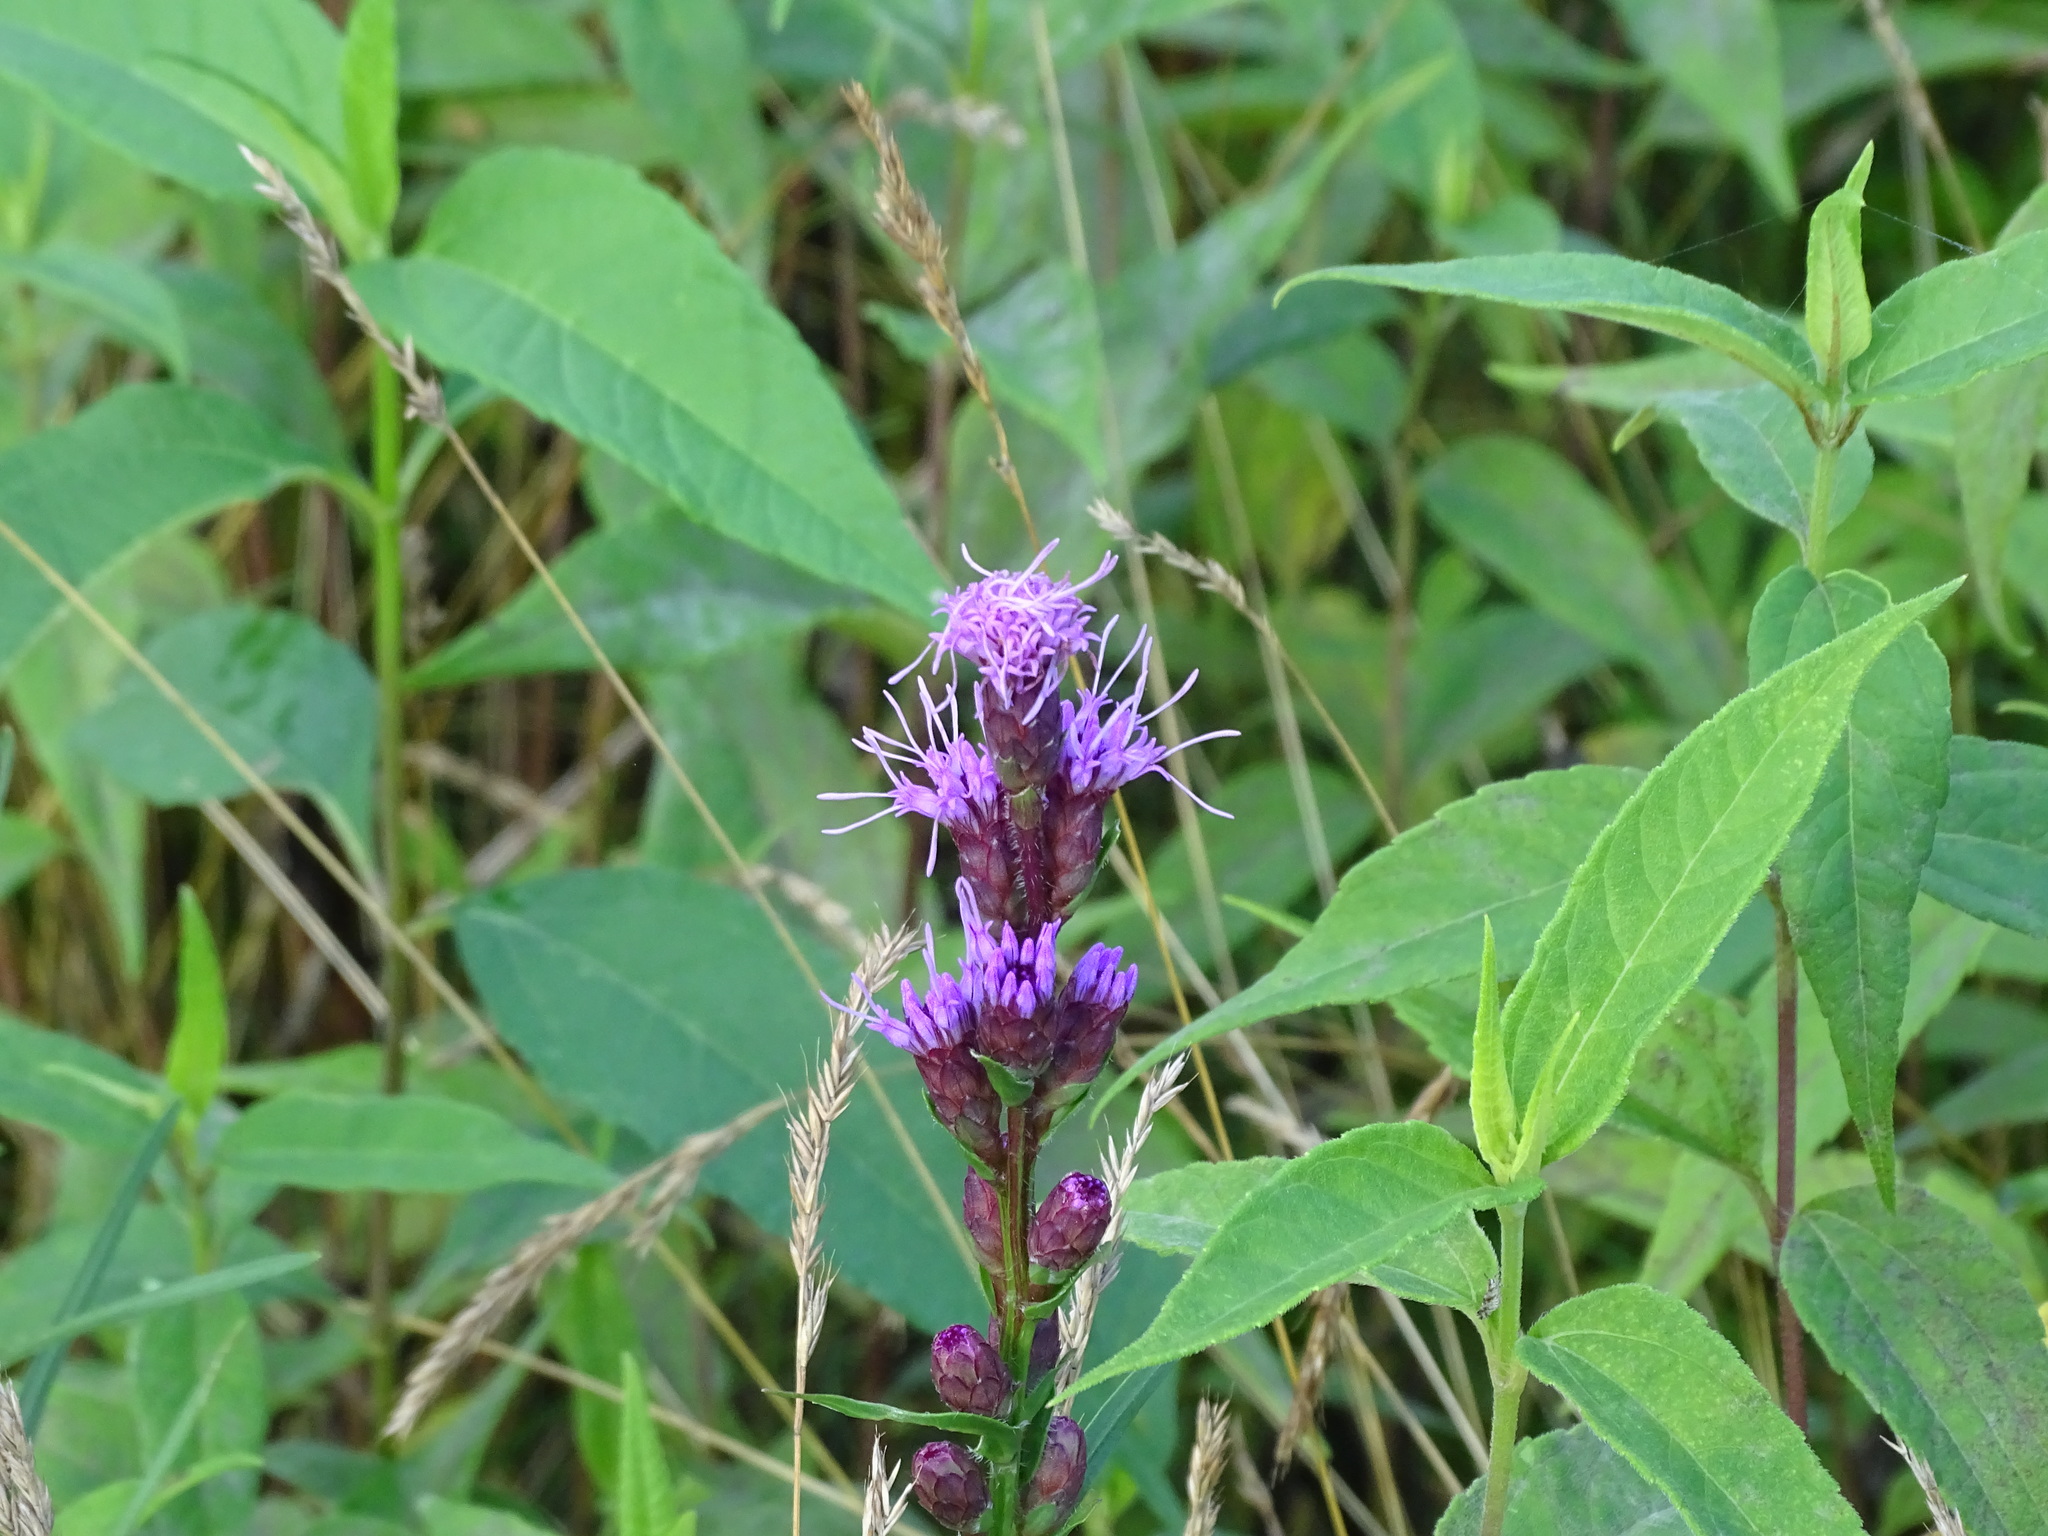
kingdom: Plantae
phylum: Tracheophyta
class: Magnoliopsida
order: Asterales
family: Asteraceae
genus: Liatris
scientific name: Liatris cylindracea
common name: Few-head blazingstar
